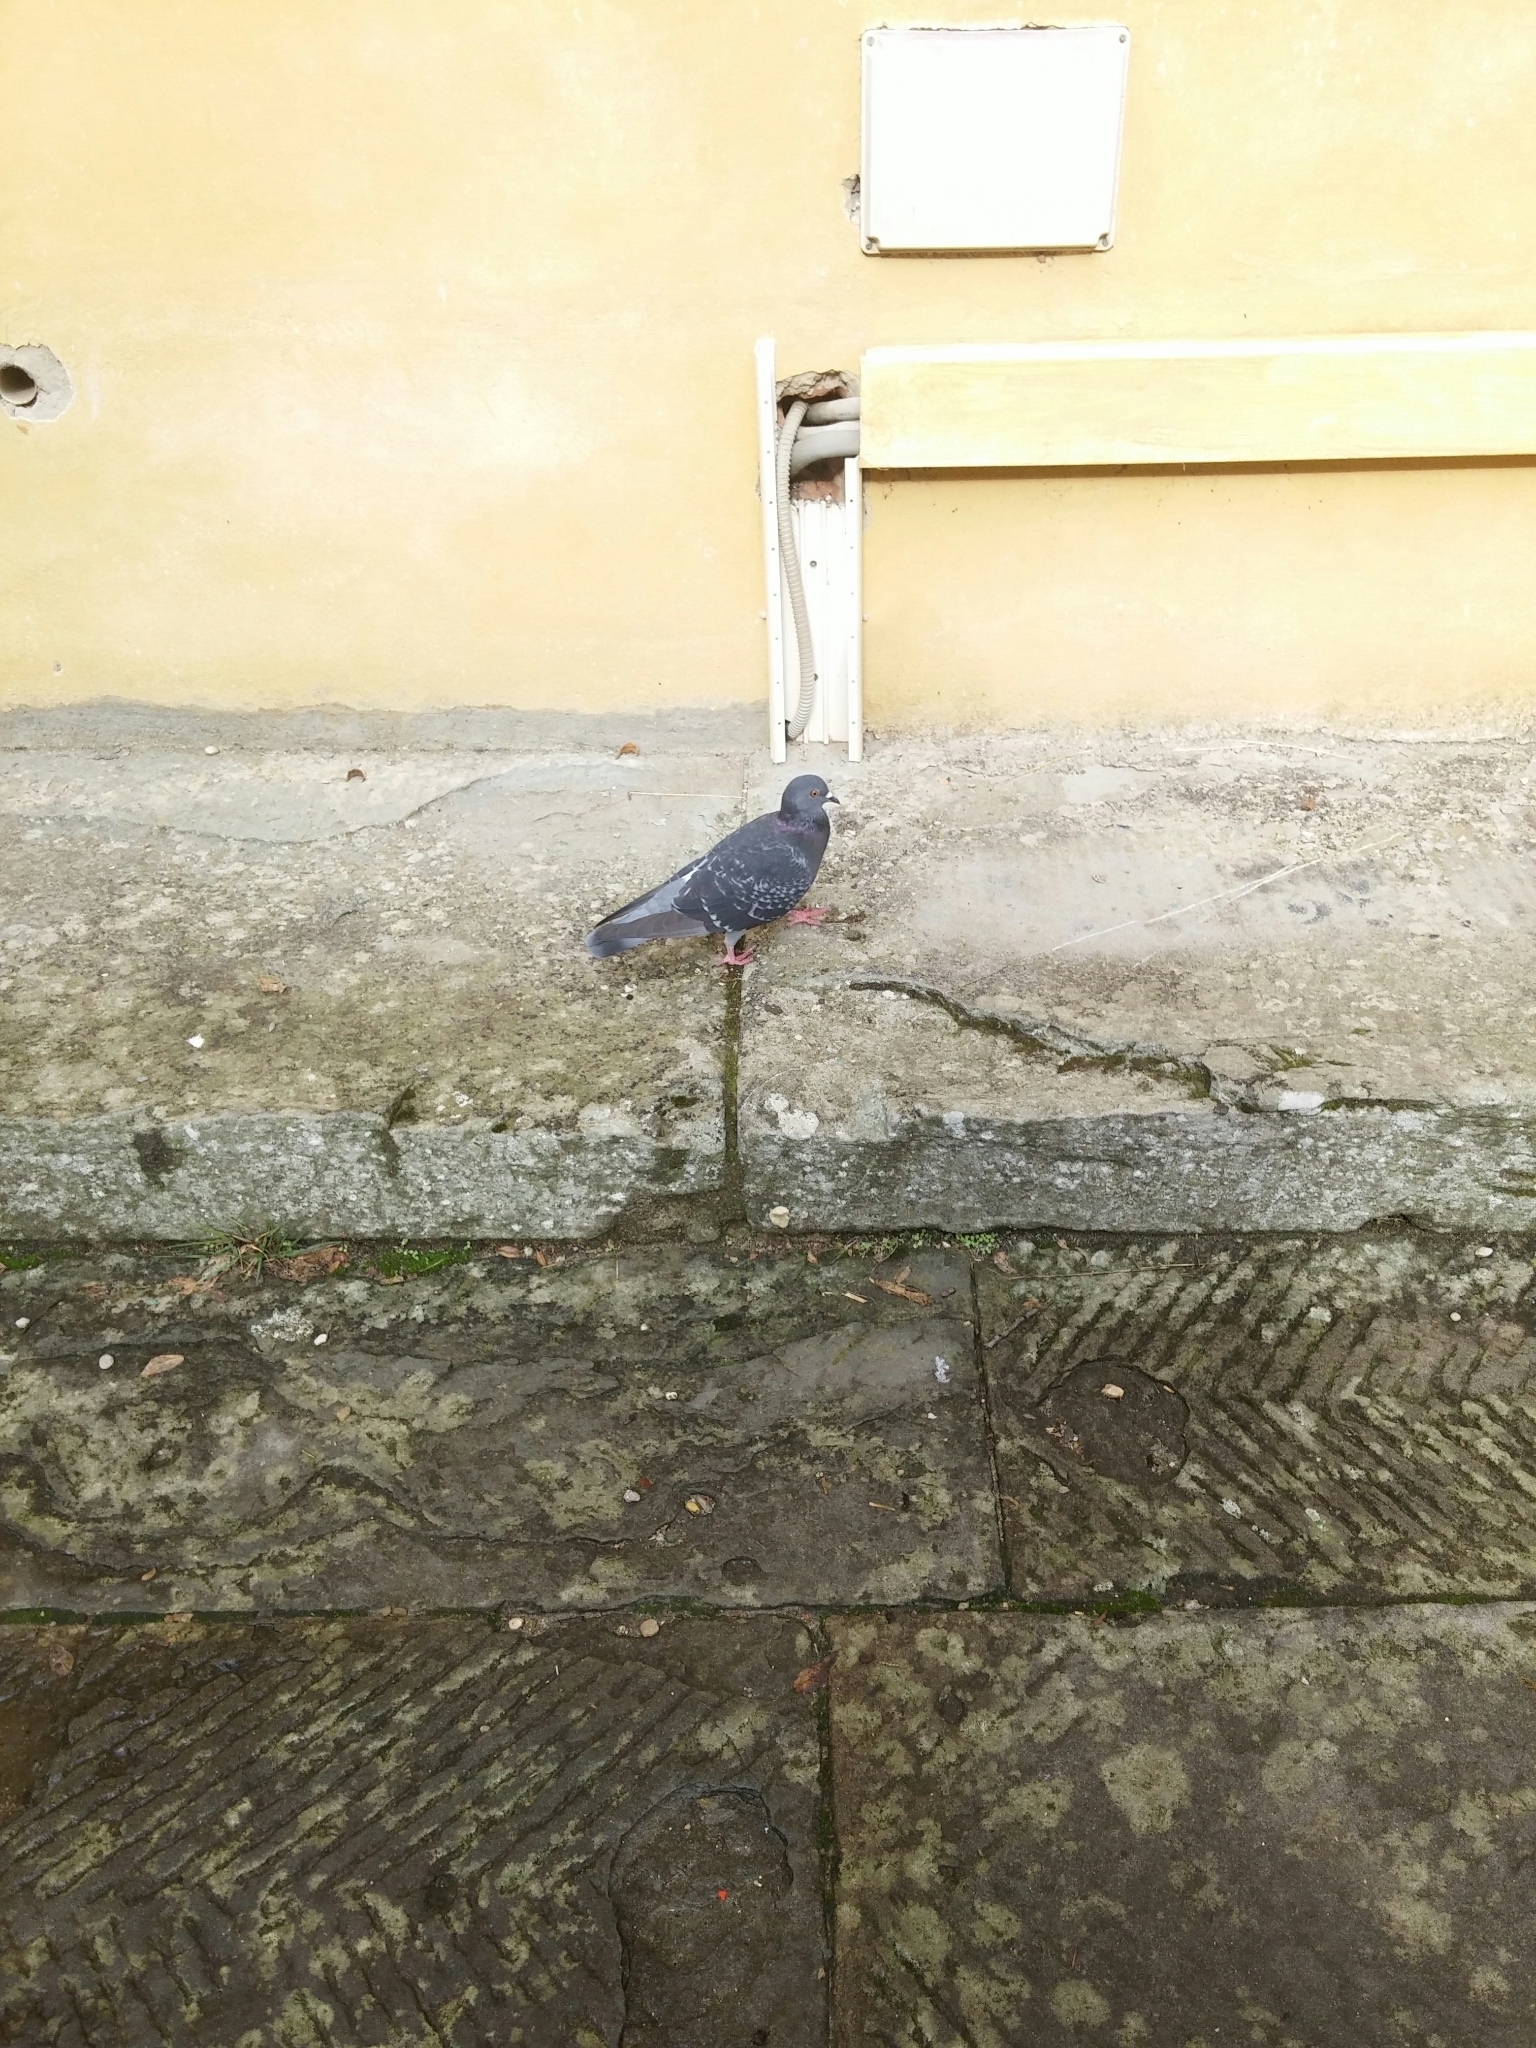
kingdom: Animalia
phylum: Chordata
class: Aves
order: Columbiformes
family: Columbidae
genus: Columba
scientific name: Columba livia
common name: Rock pigeon
